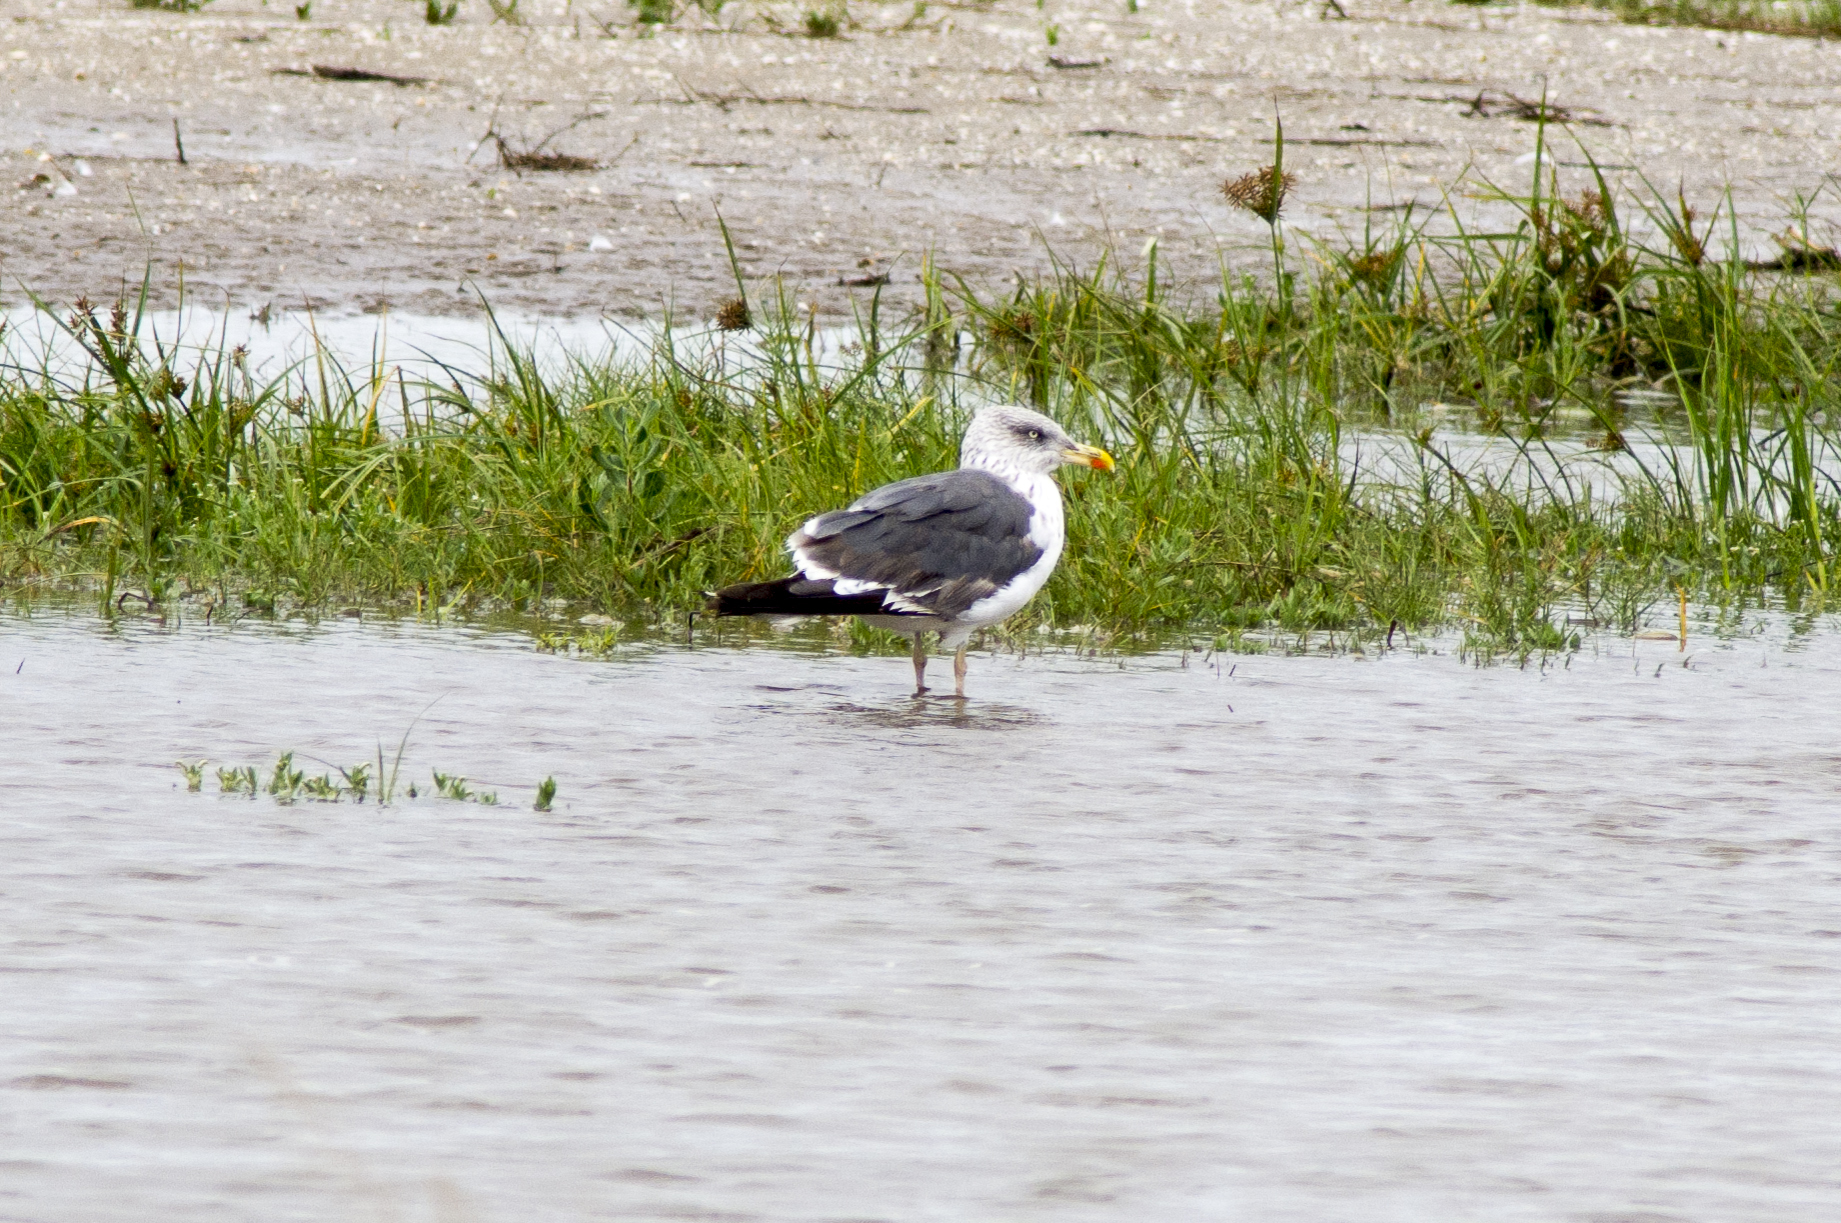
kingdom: Animalia
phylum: Chordata
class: Aves
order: Charadriiformes
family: Laridae
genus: Larus
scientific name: Larus fuscus
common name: Lesser black-backed gull
